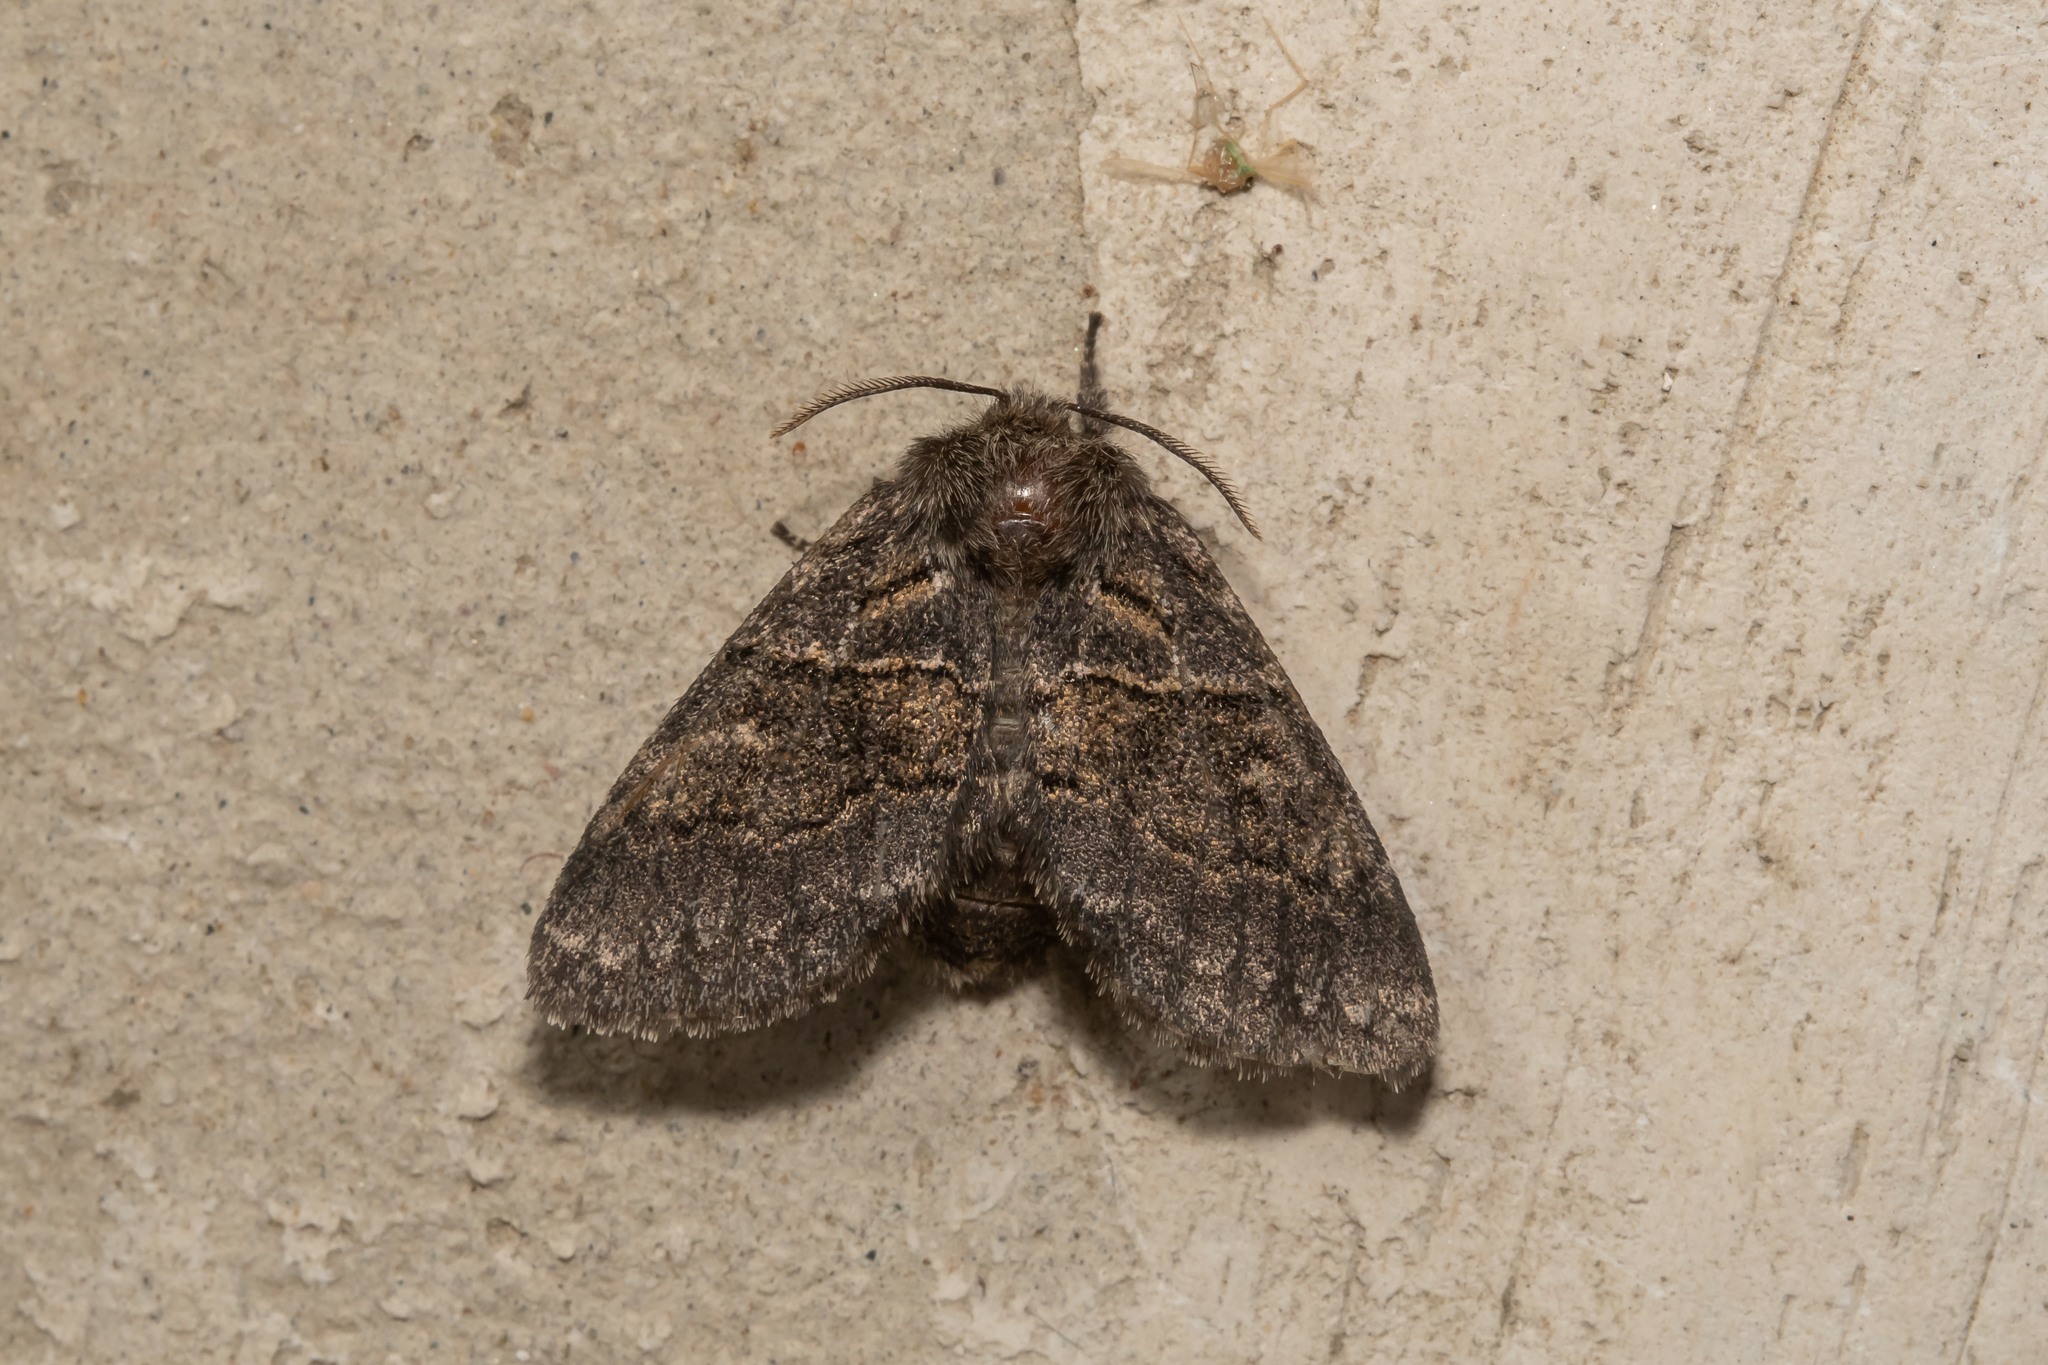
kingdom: Animalia
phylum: Arthropoda
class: Insecta
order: Lepidoptera
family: Notodontidae
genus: Gluphisia
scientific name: Gluphisia crenata
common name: Dusky marbled brown
